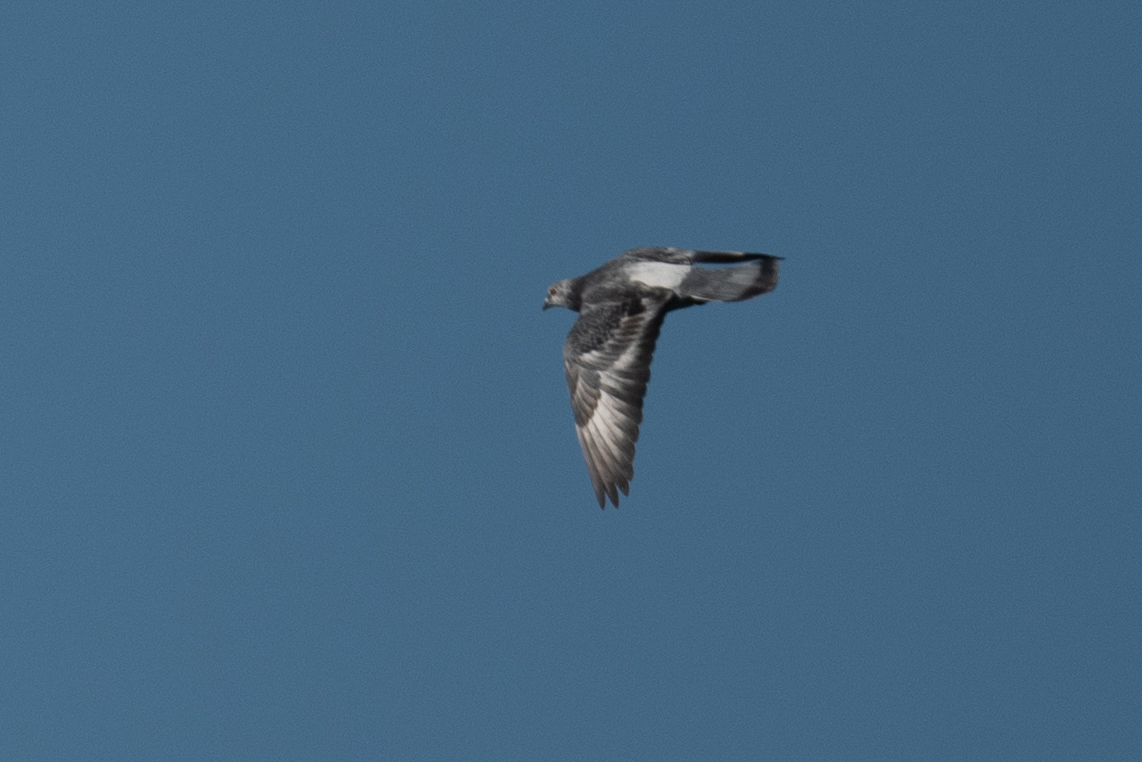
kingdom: Animalia
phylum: Chordata
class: Aves
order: Columbiformes
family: Columbidae
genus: Columba
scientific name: Columba livia
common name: Rock pigeon
